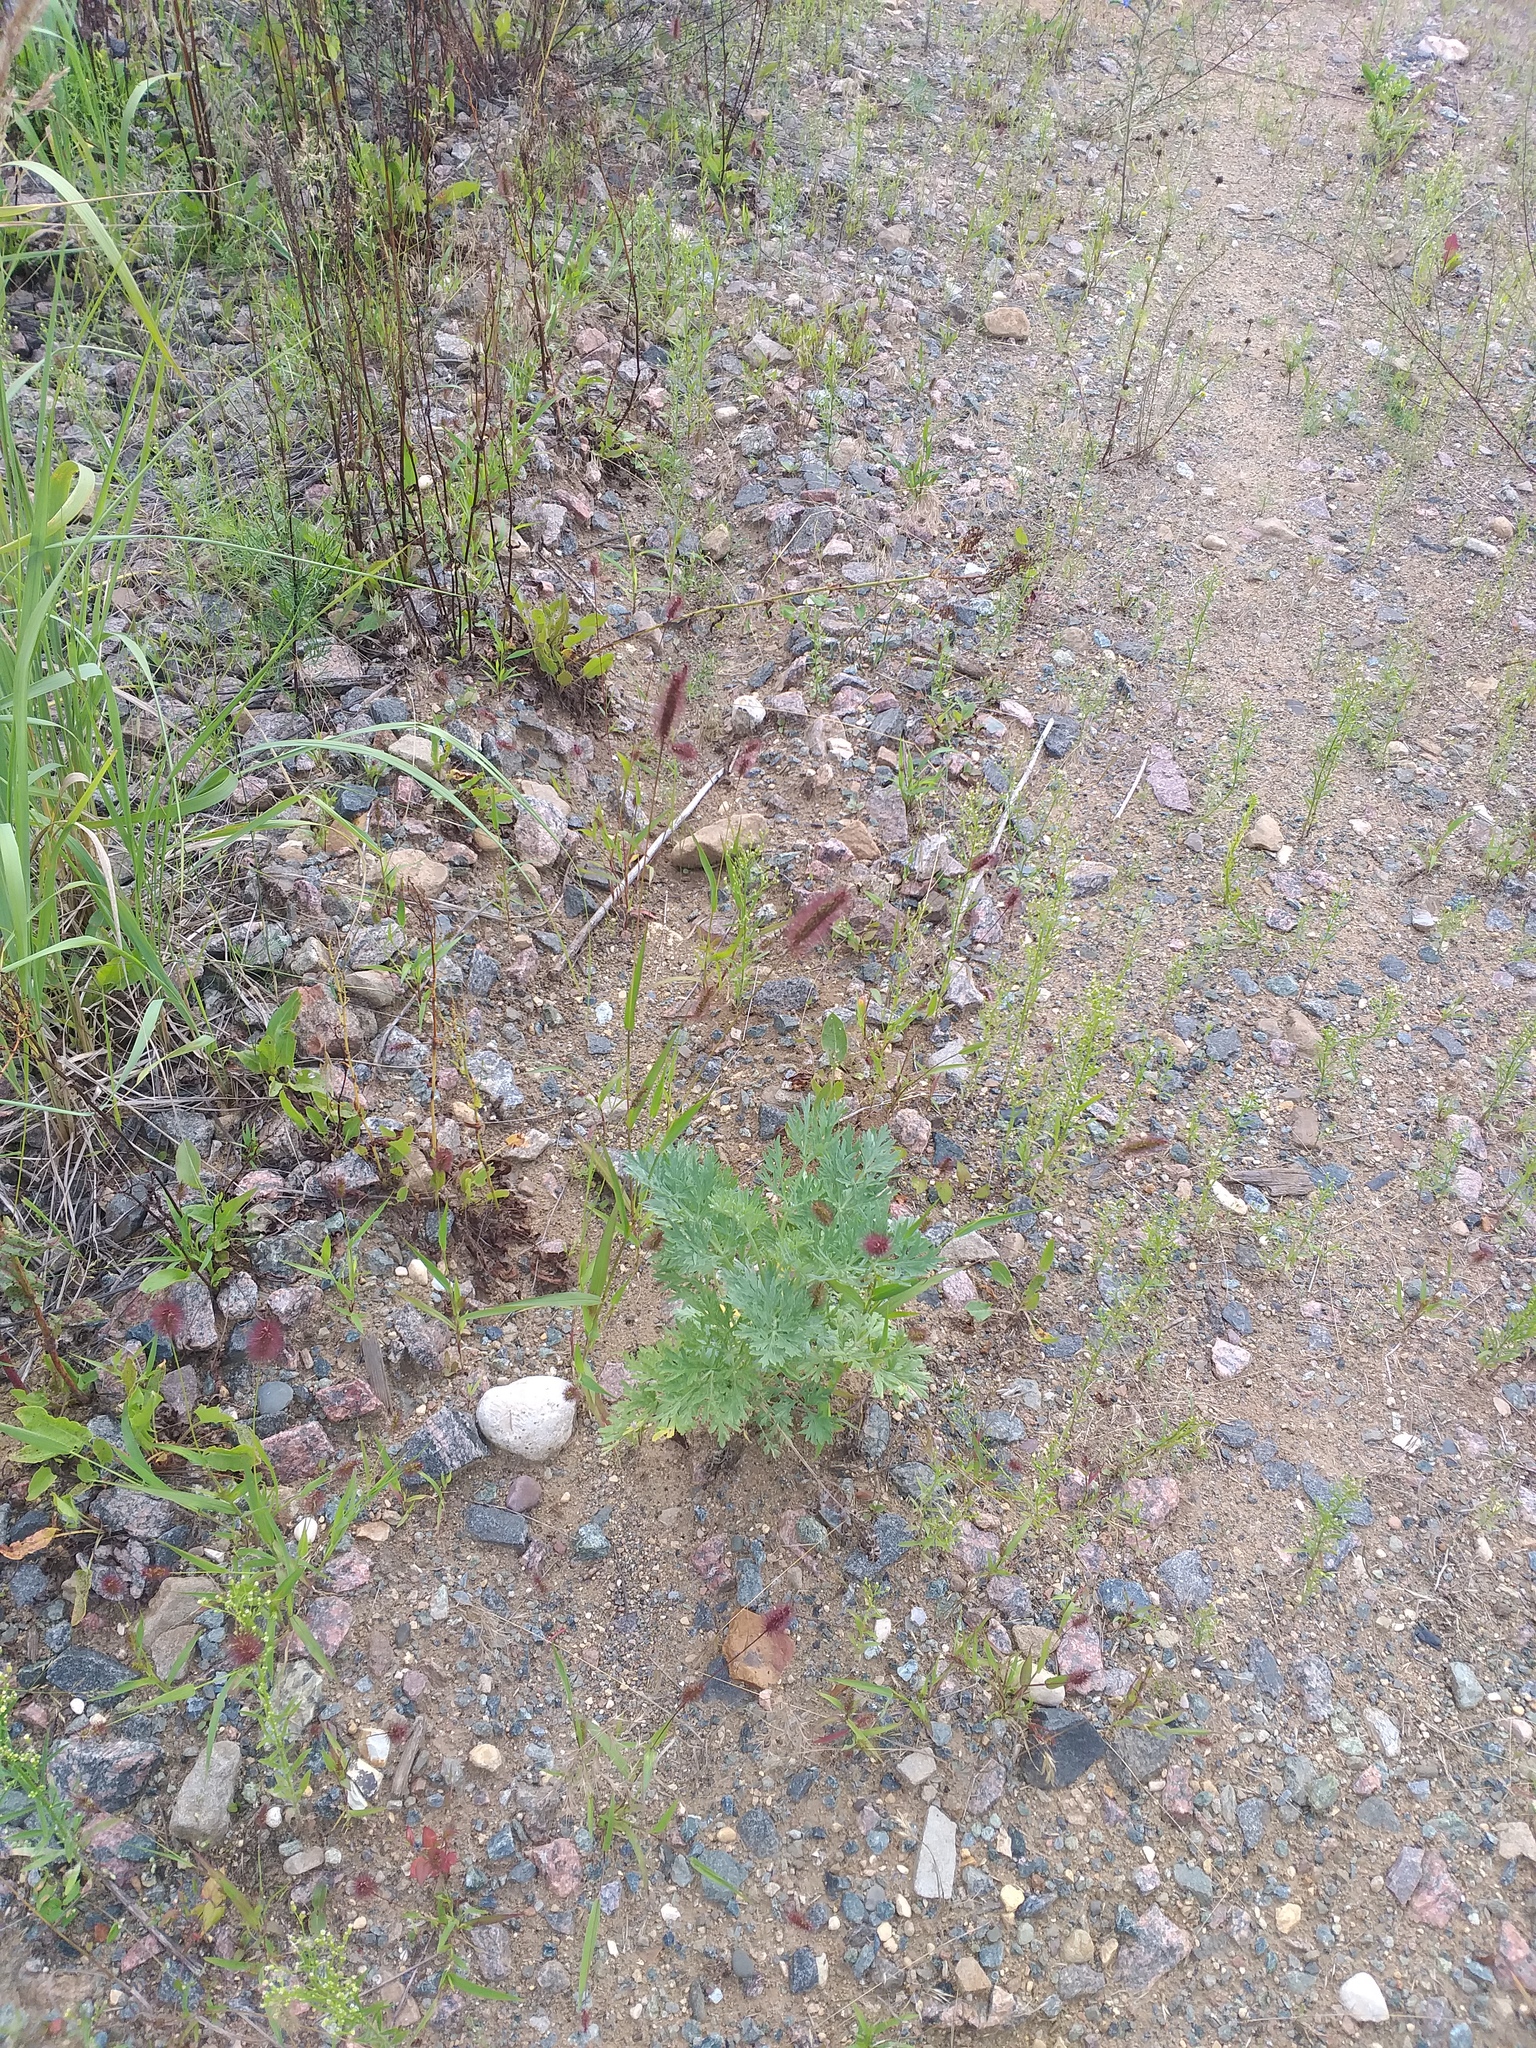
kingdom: Plantae
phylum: Tracheophyta
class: Liliopsida
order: Poales
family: Poaceae
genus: Setaria
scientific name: Setaria viridis
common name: Green bristlegrass
